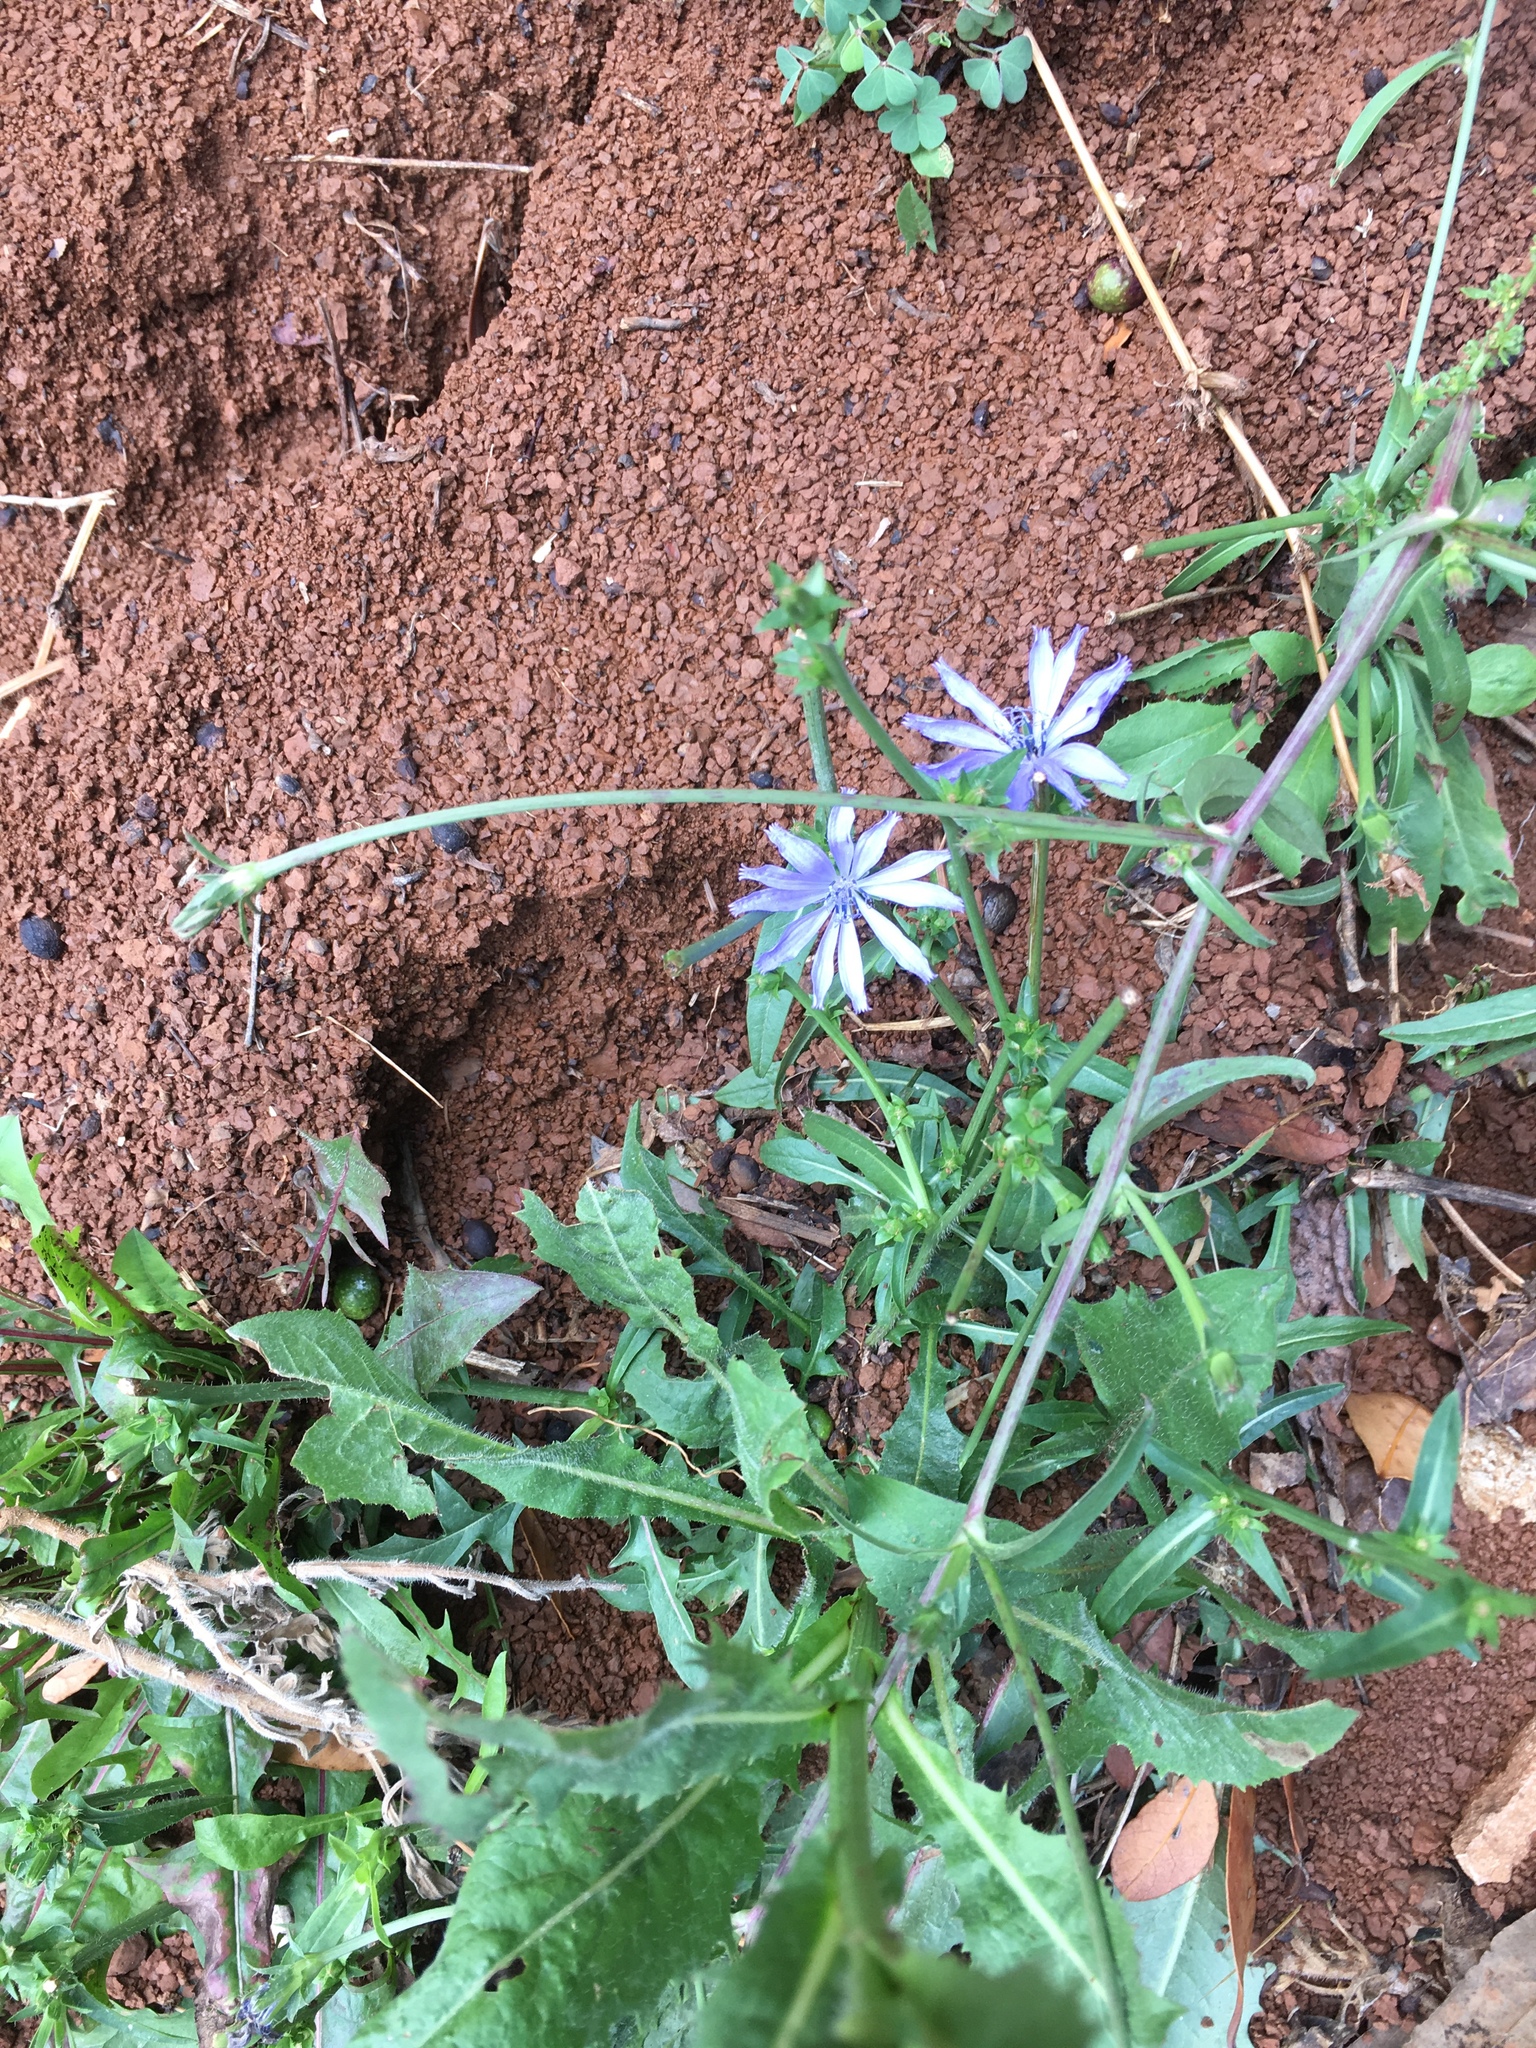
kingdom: Plantae
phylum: Tracheophyta
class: Magnoliopsida
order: Asterales
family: Asteraceae
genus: Cichorium
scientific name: Cichorium intybus
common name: Chicory
